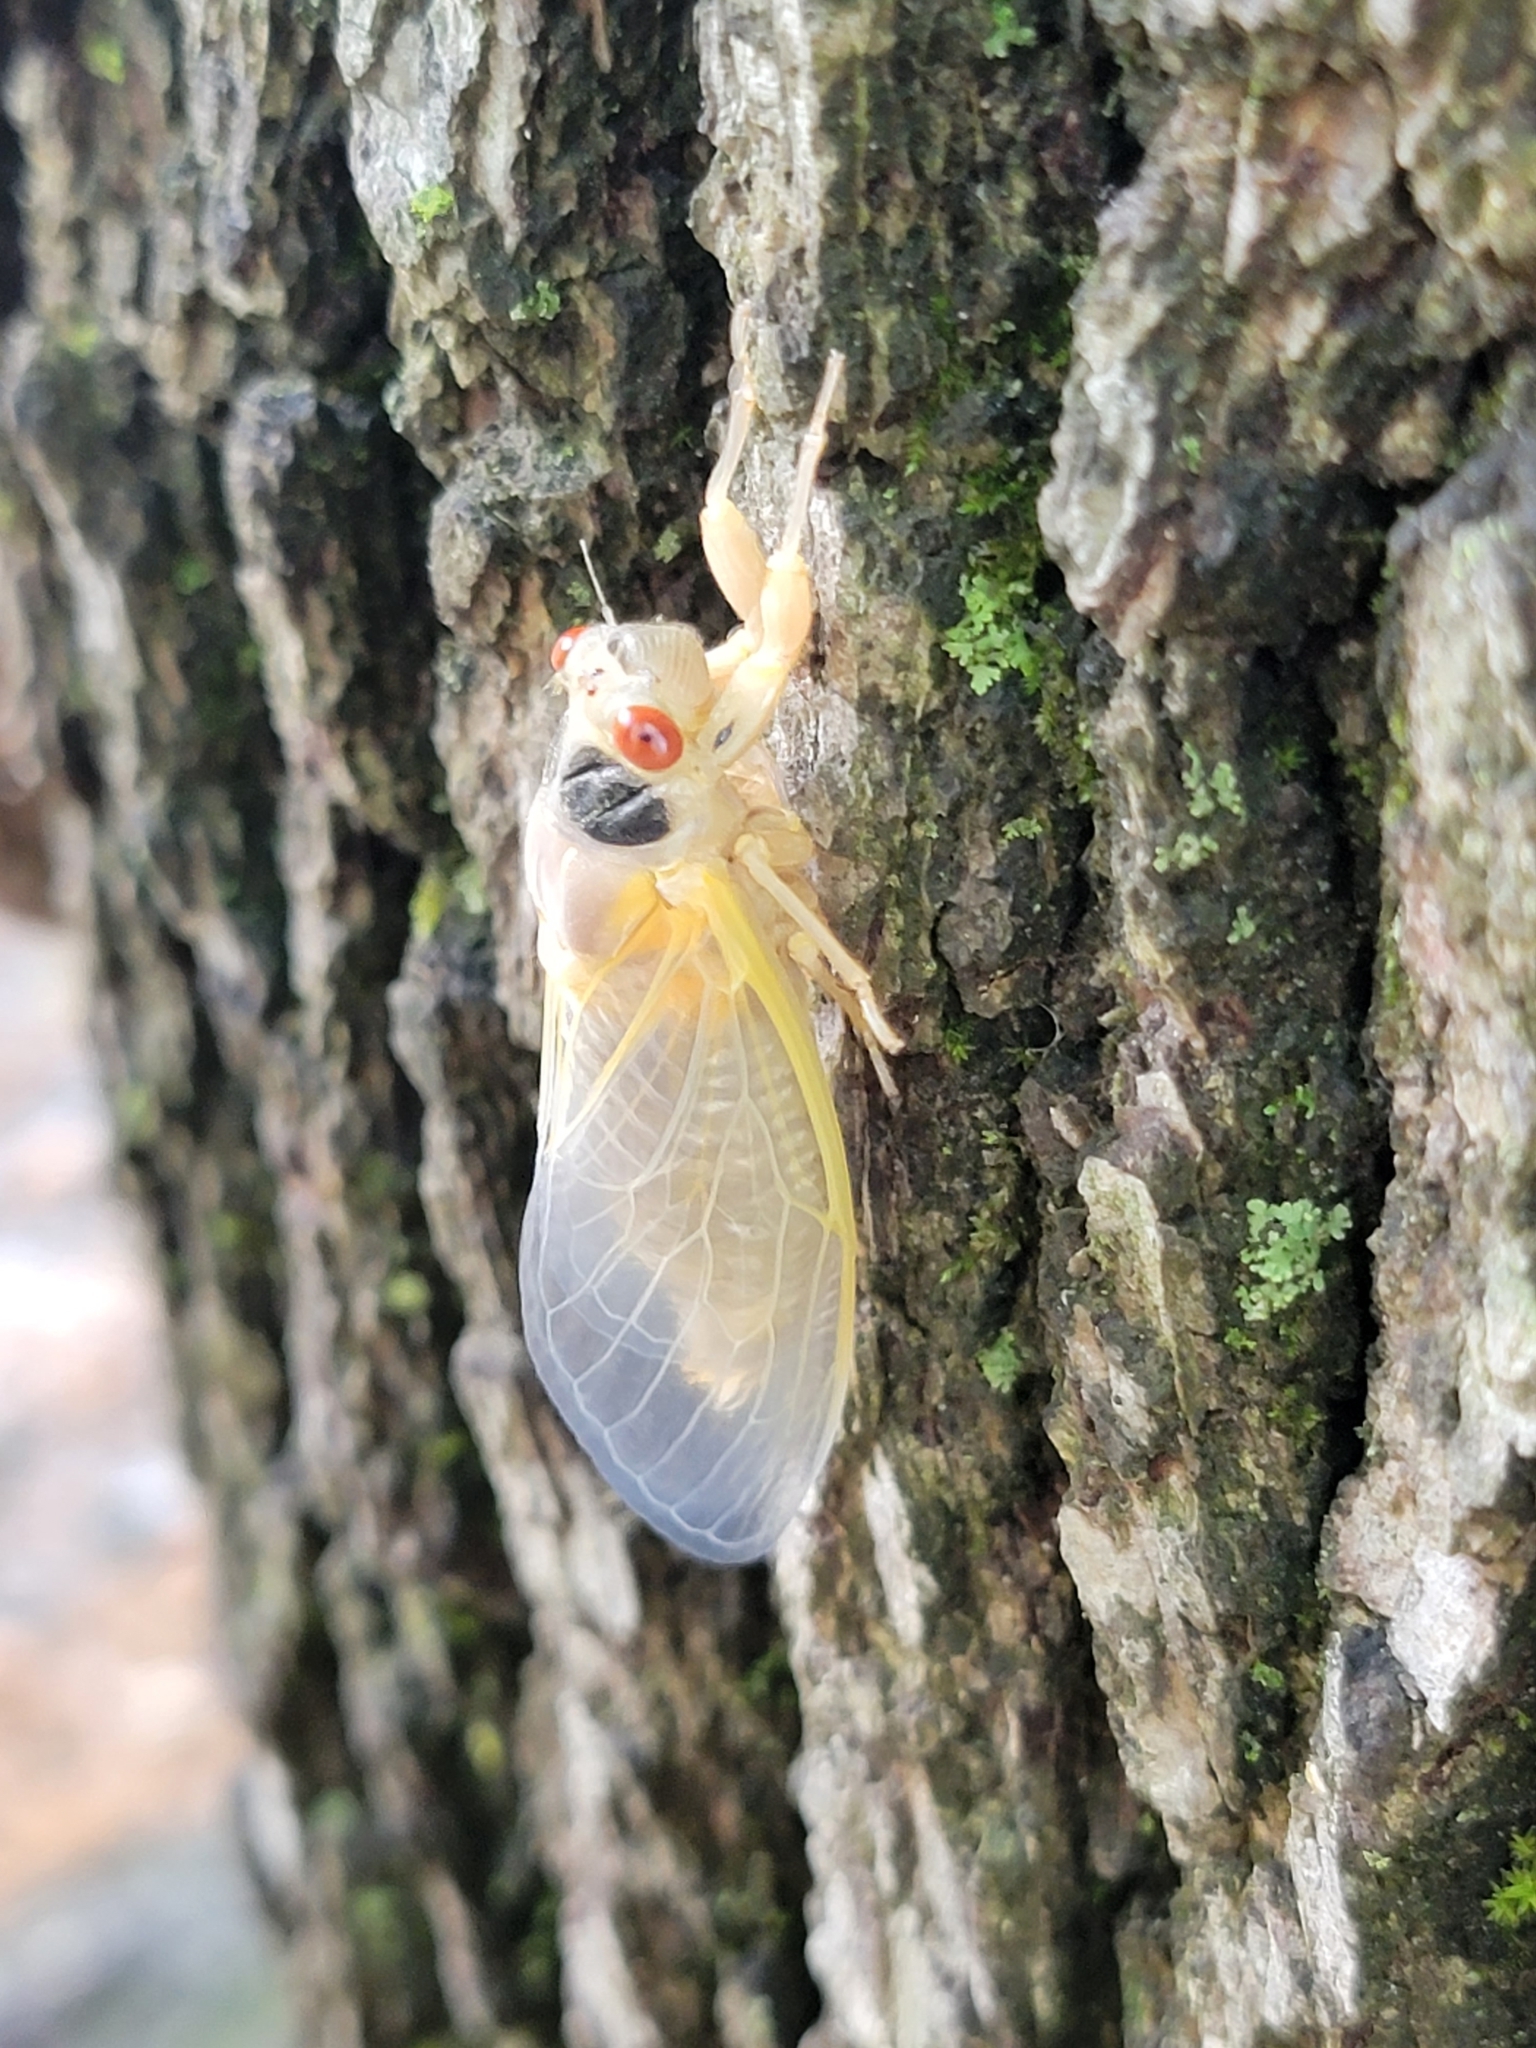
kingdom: Animalia
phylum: Arthropoda
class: Insecta
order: Hemiptera
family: Cicadidae
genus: Magicicada
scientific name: Magicicada
